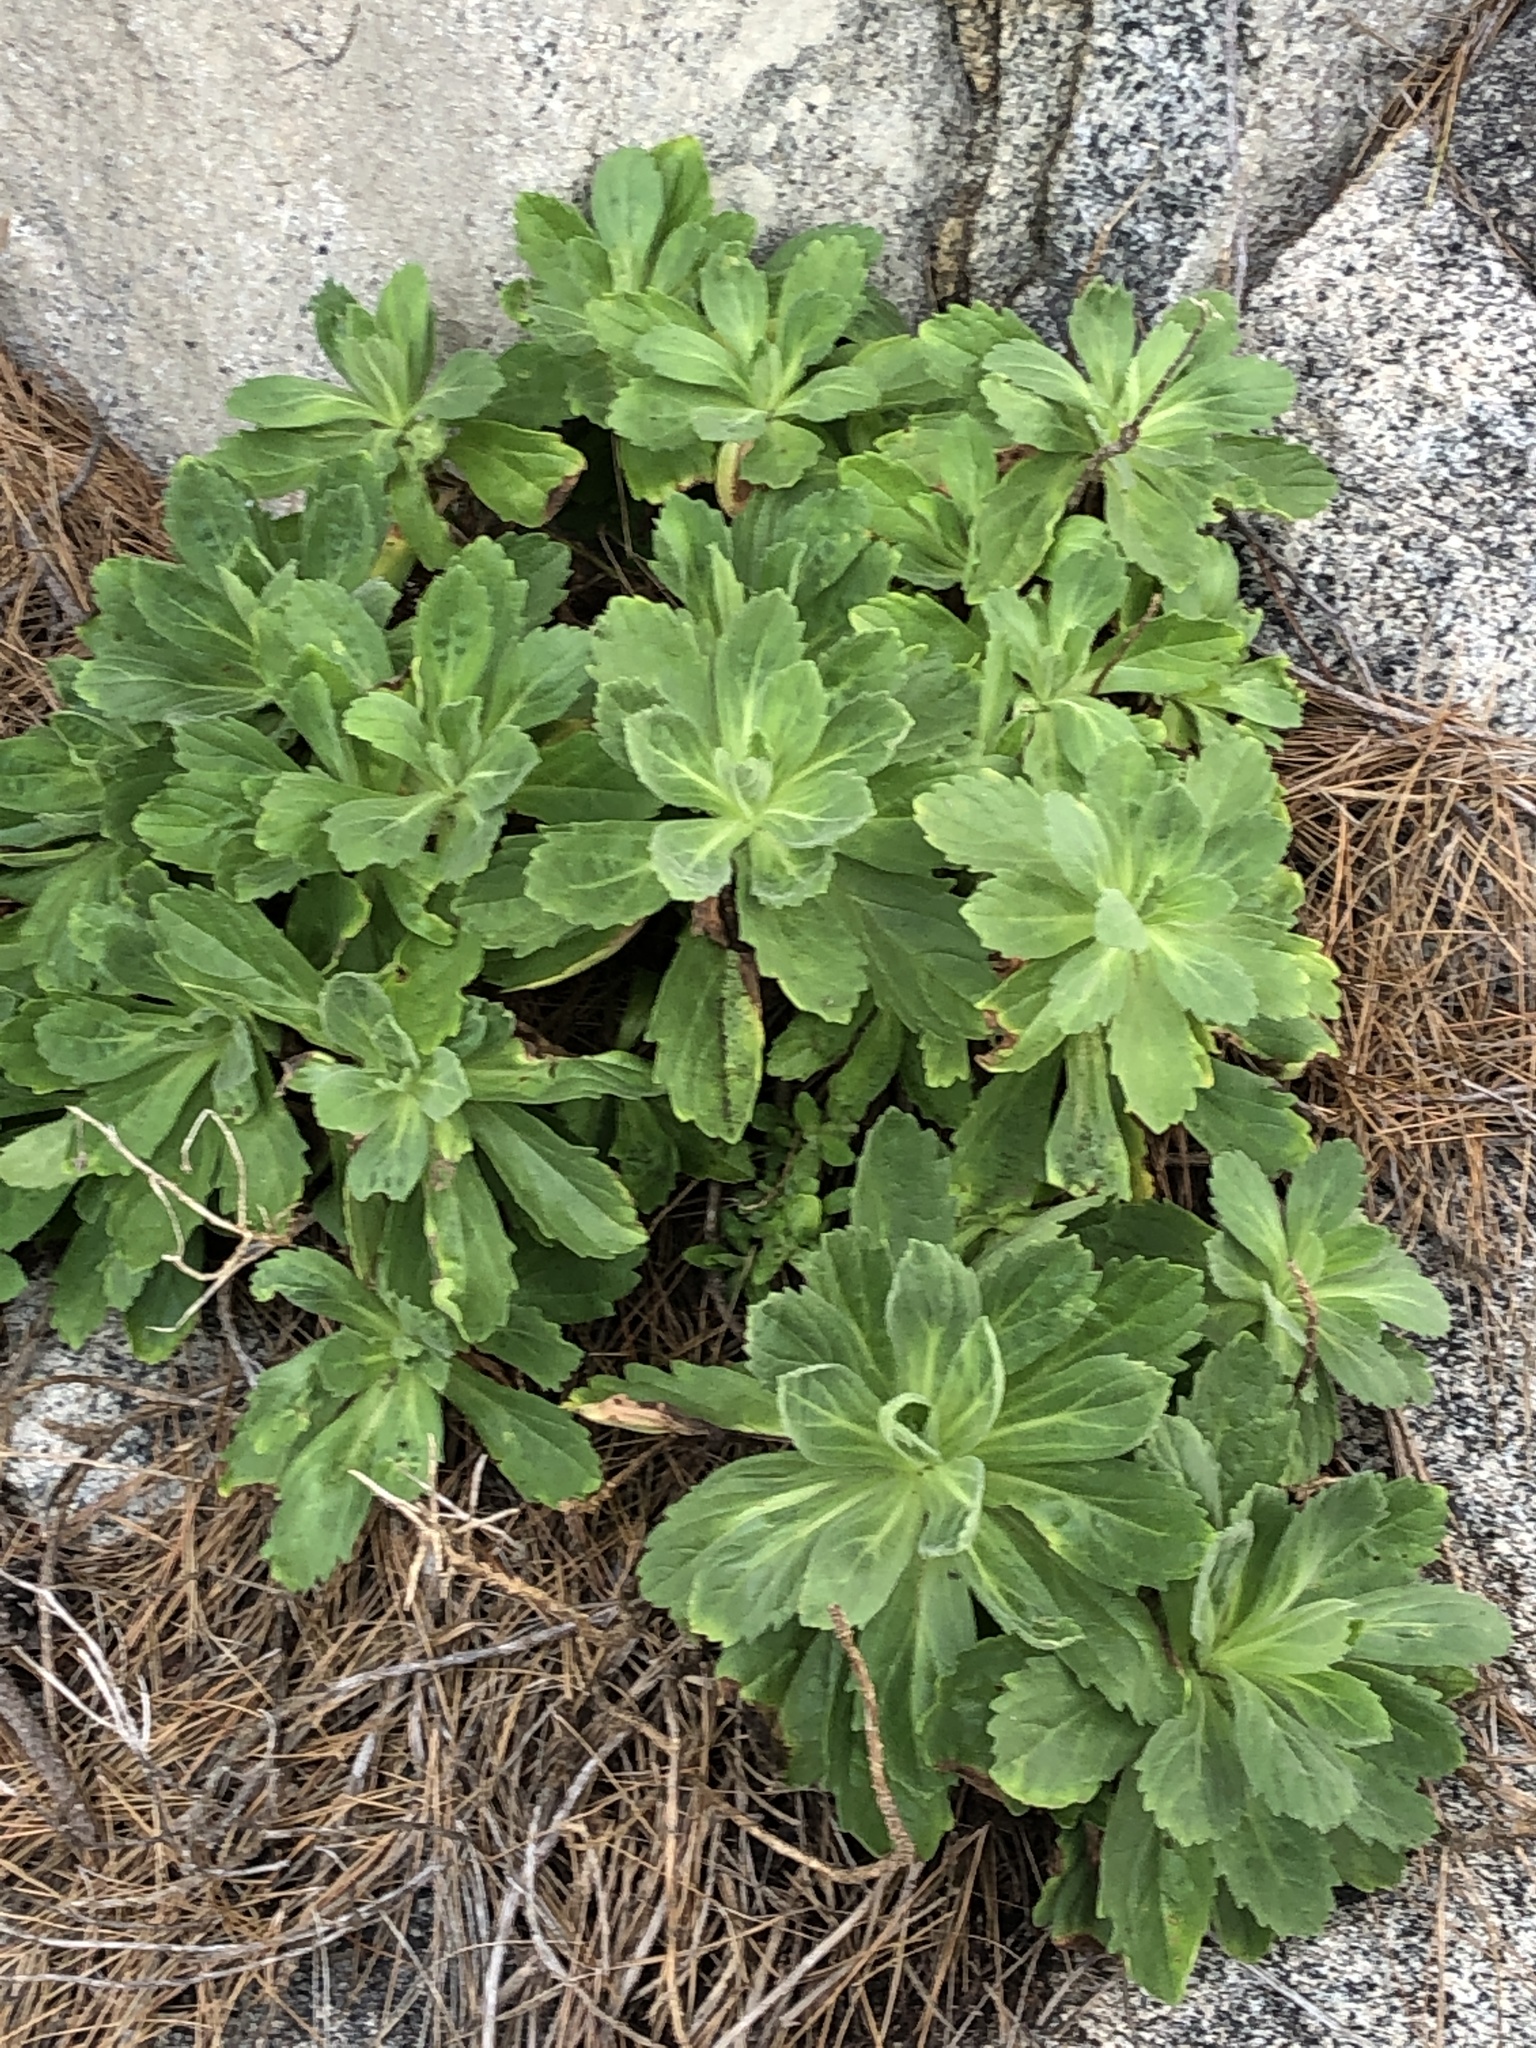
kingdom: Plantae
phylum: Tracheophyta
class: Magnoliopsida
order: Asterales
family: Asteraceae
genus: Aster
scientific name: Aster spathulifolius
